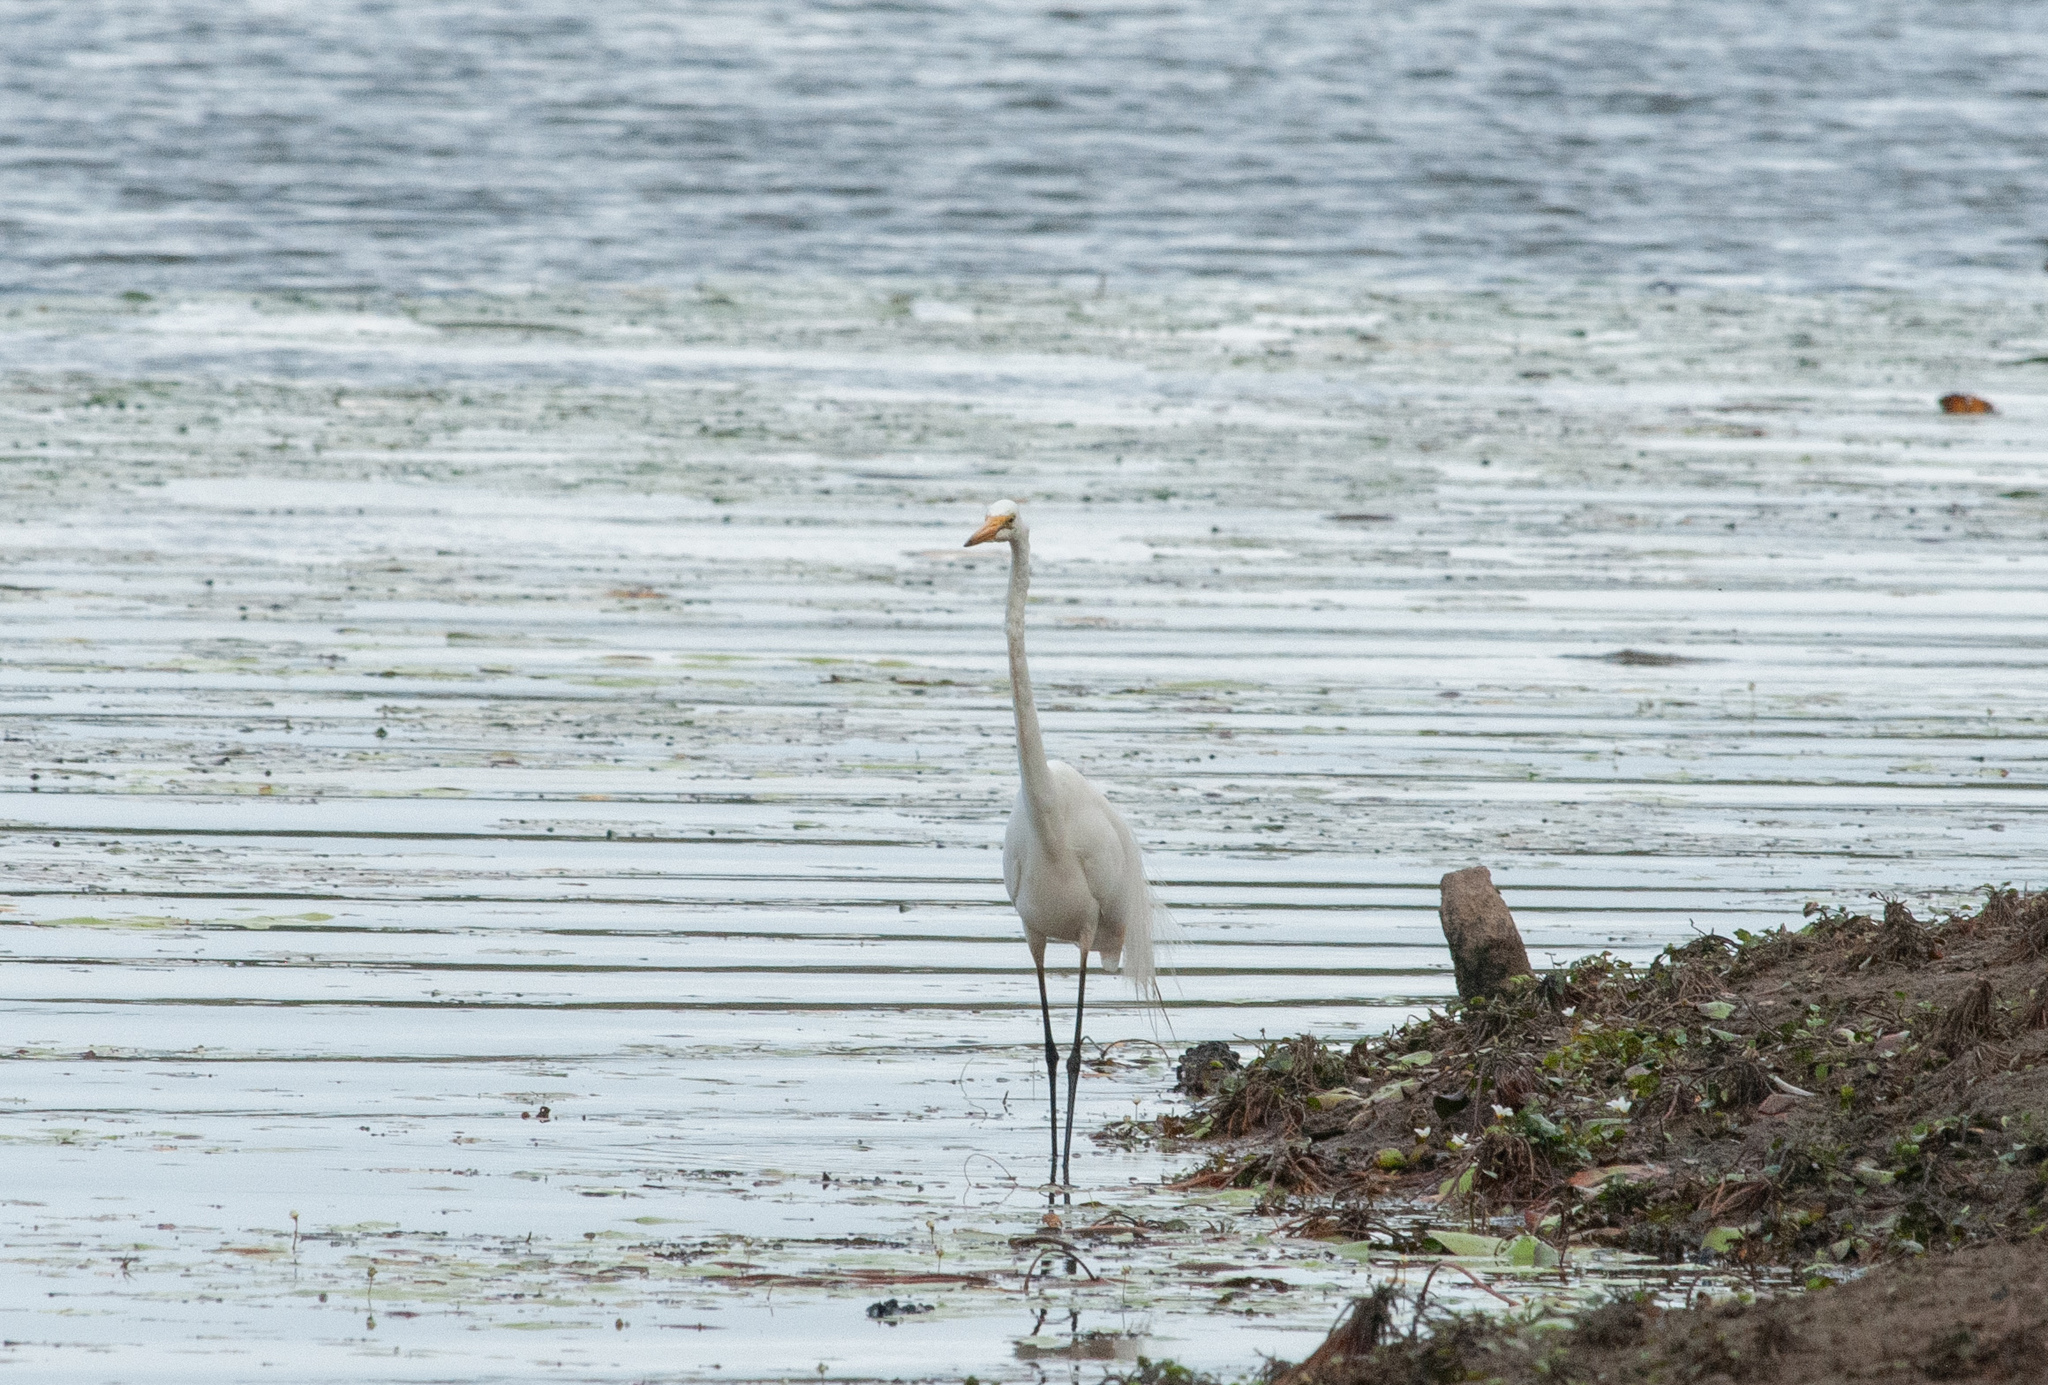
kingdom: Animalia
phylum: Chordata
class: Aves
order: Pelecaniformes
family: Ardeidae
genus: Ardea
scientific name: Ardea alba
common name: Great egret
